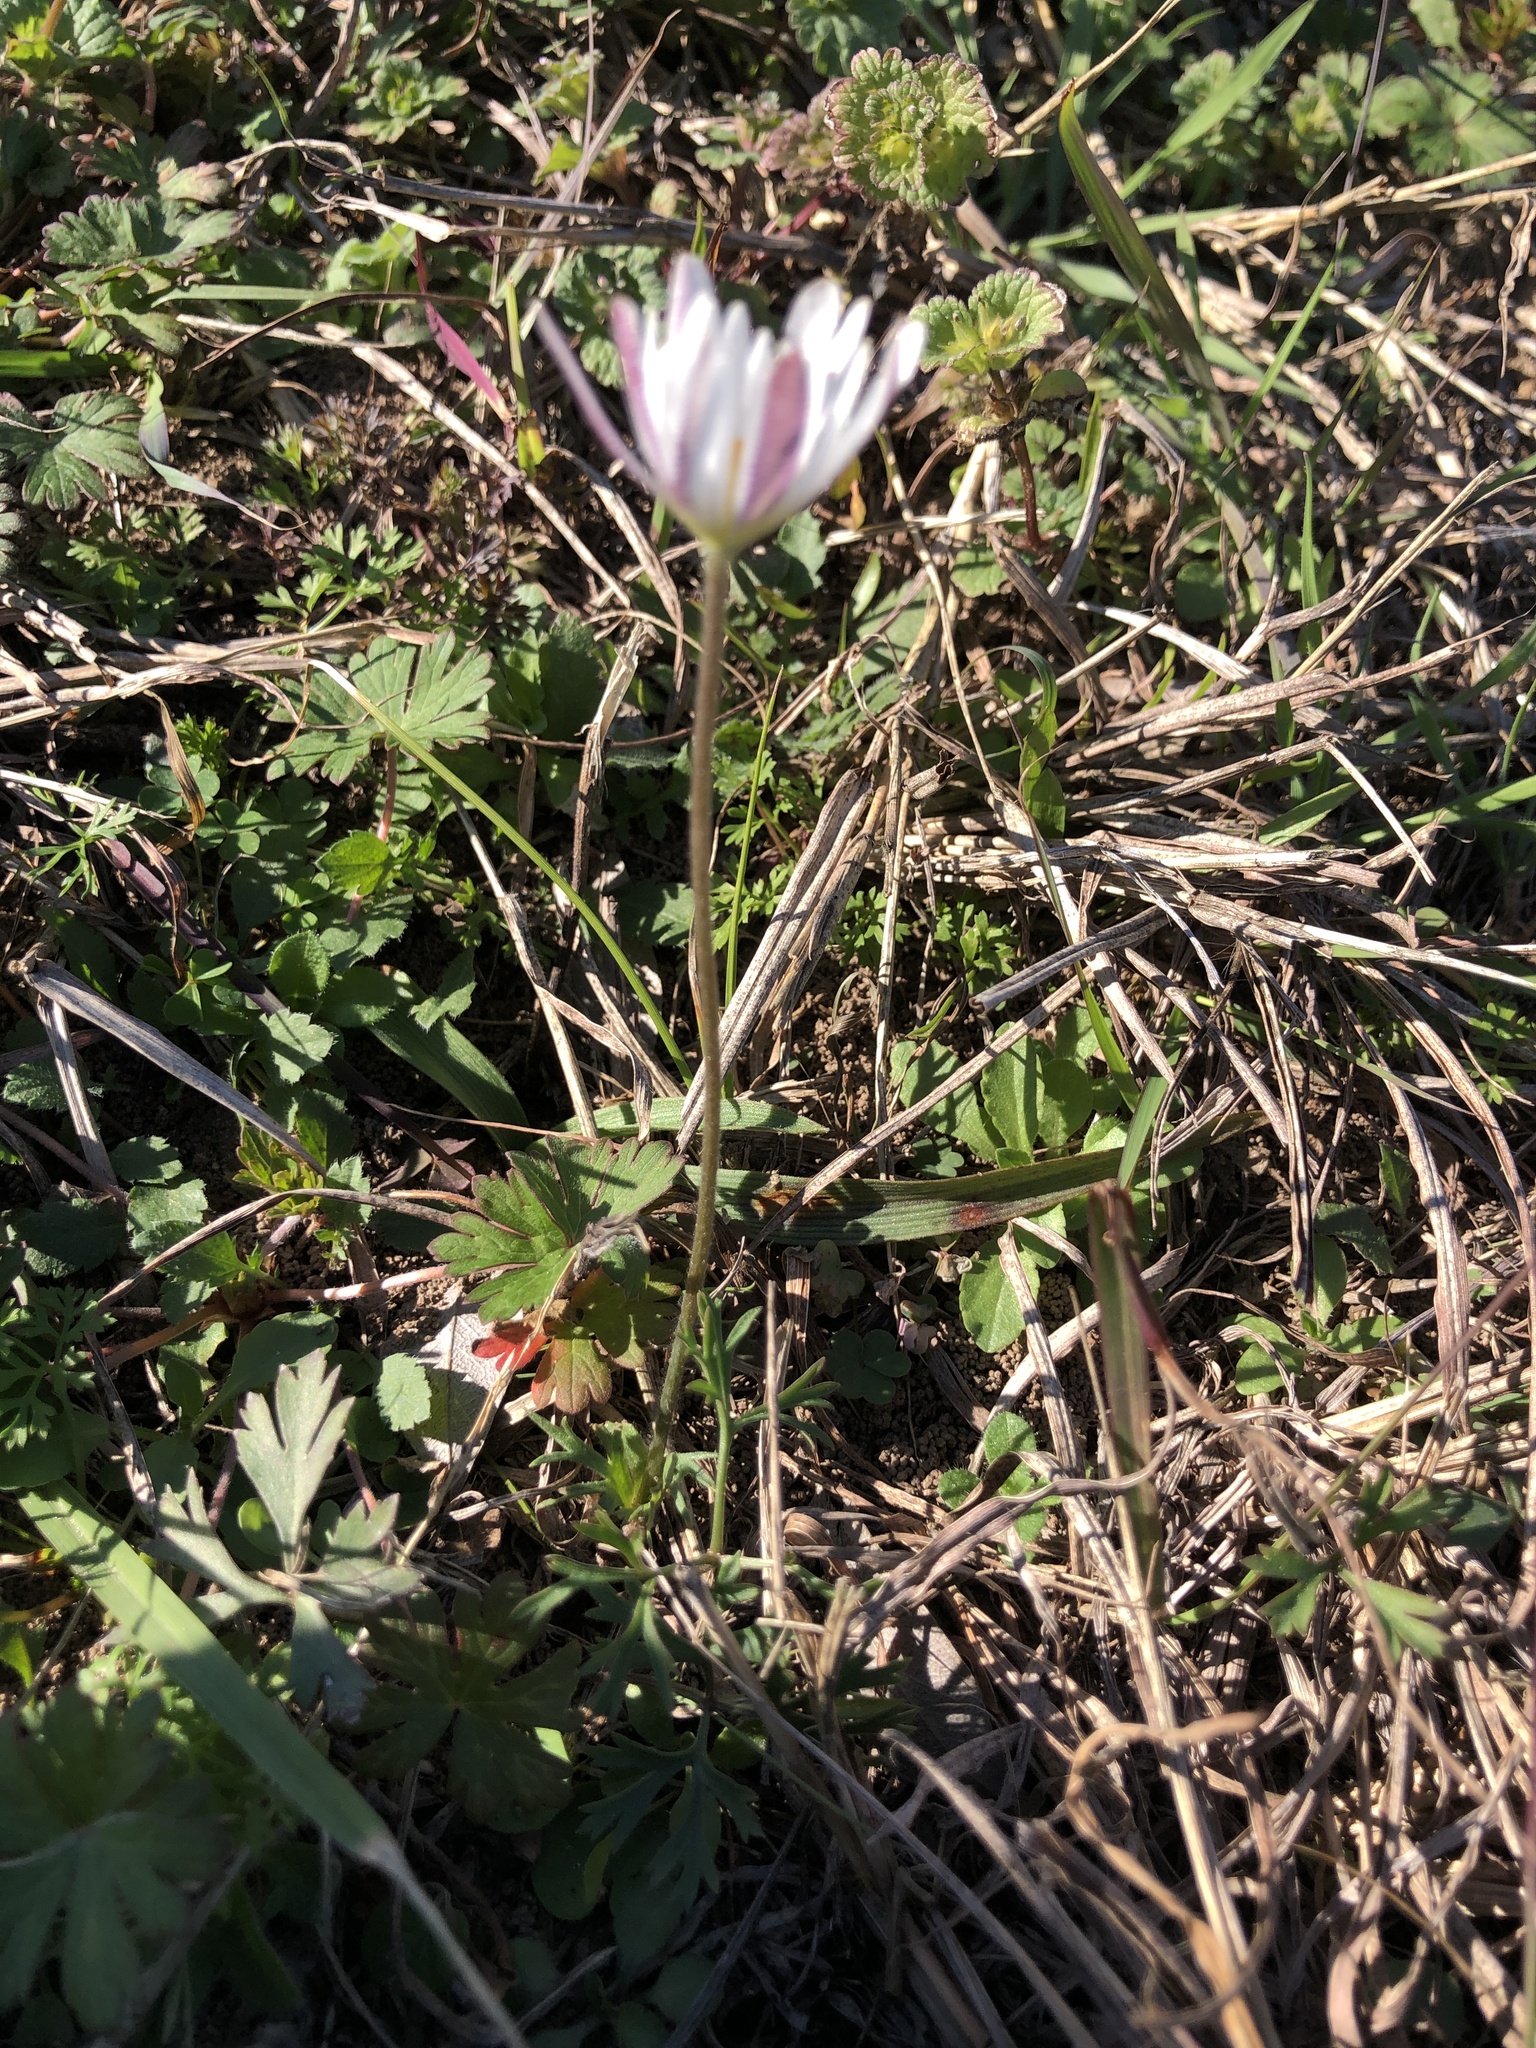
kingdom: Plantae
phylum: Tracheophyta
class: Magnoliopsida
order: Ranunculales
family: Ranunculaceae
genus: Anemone
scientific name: Anemone caroliniana
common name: Carolina anemone
